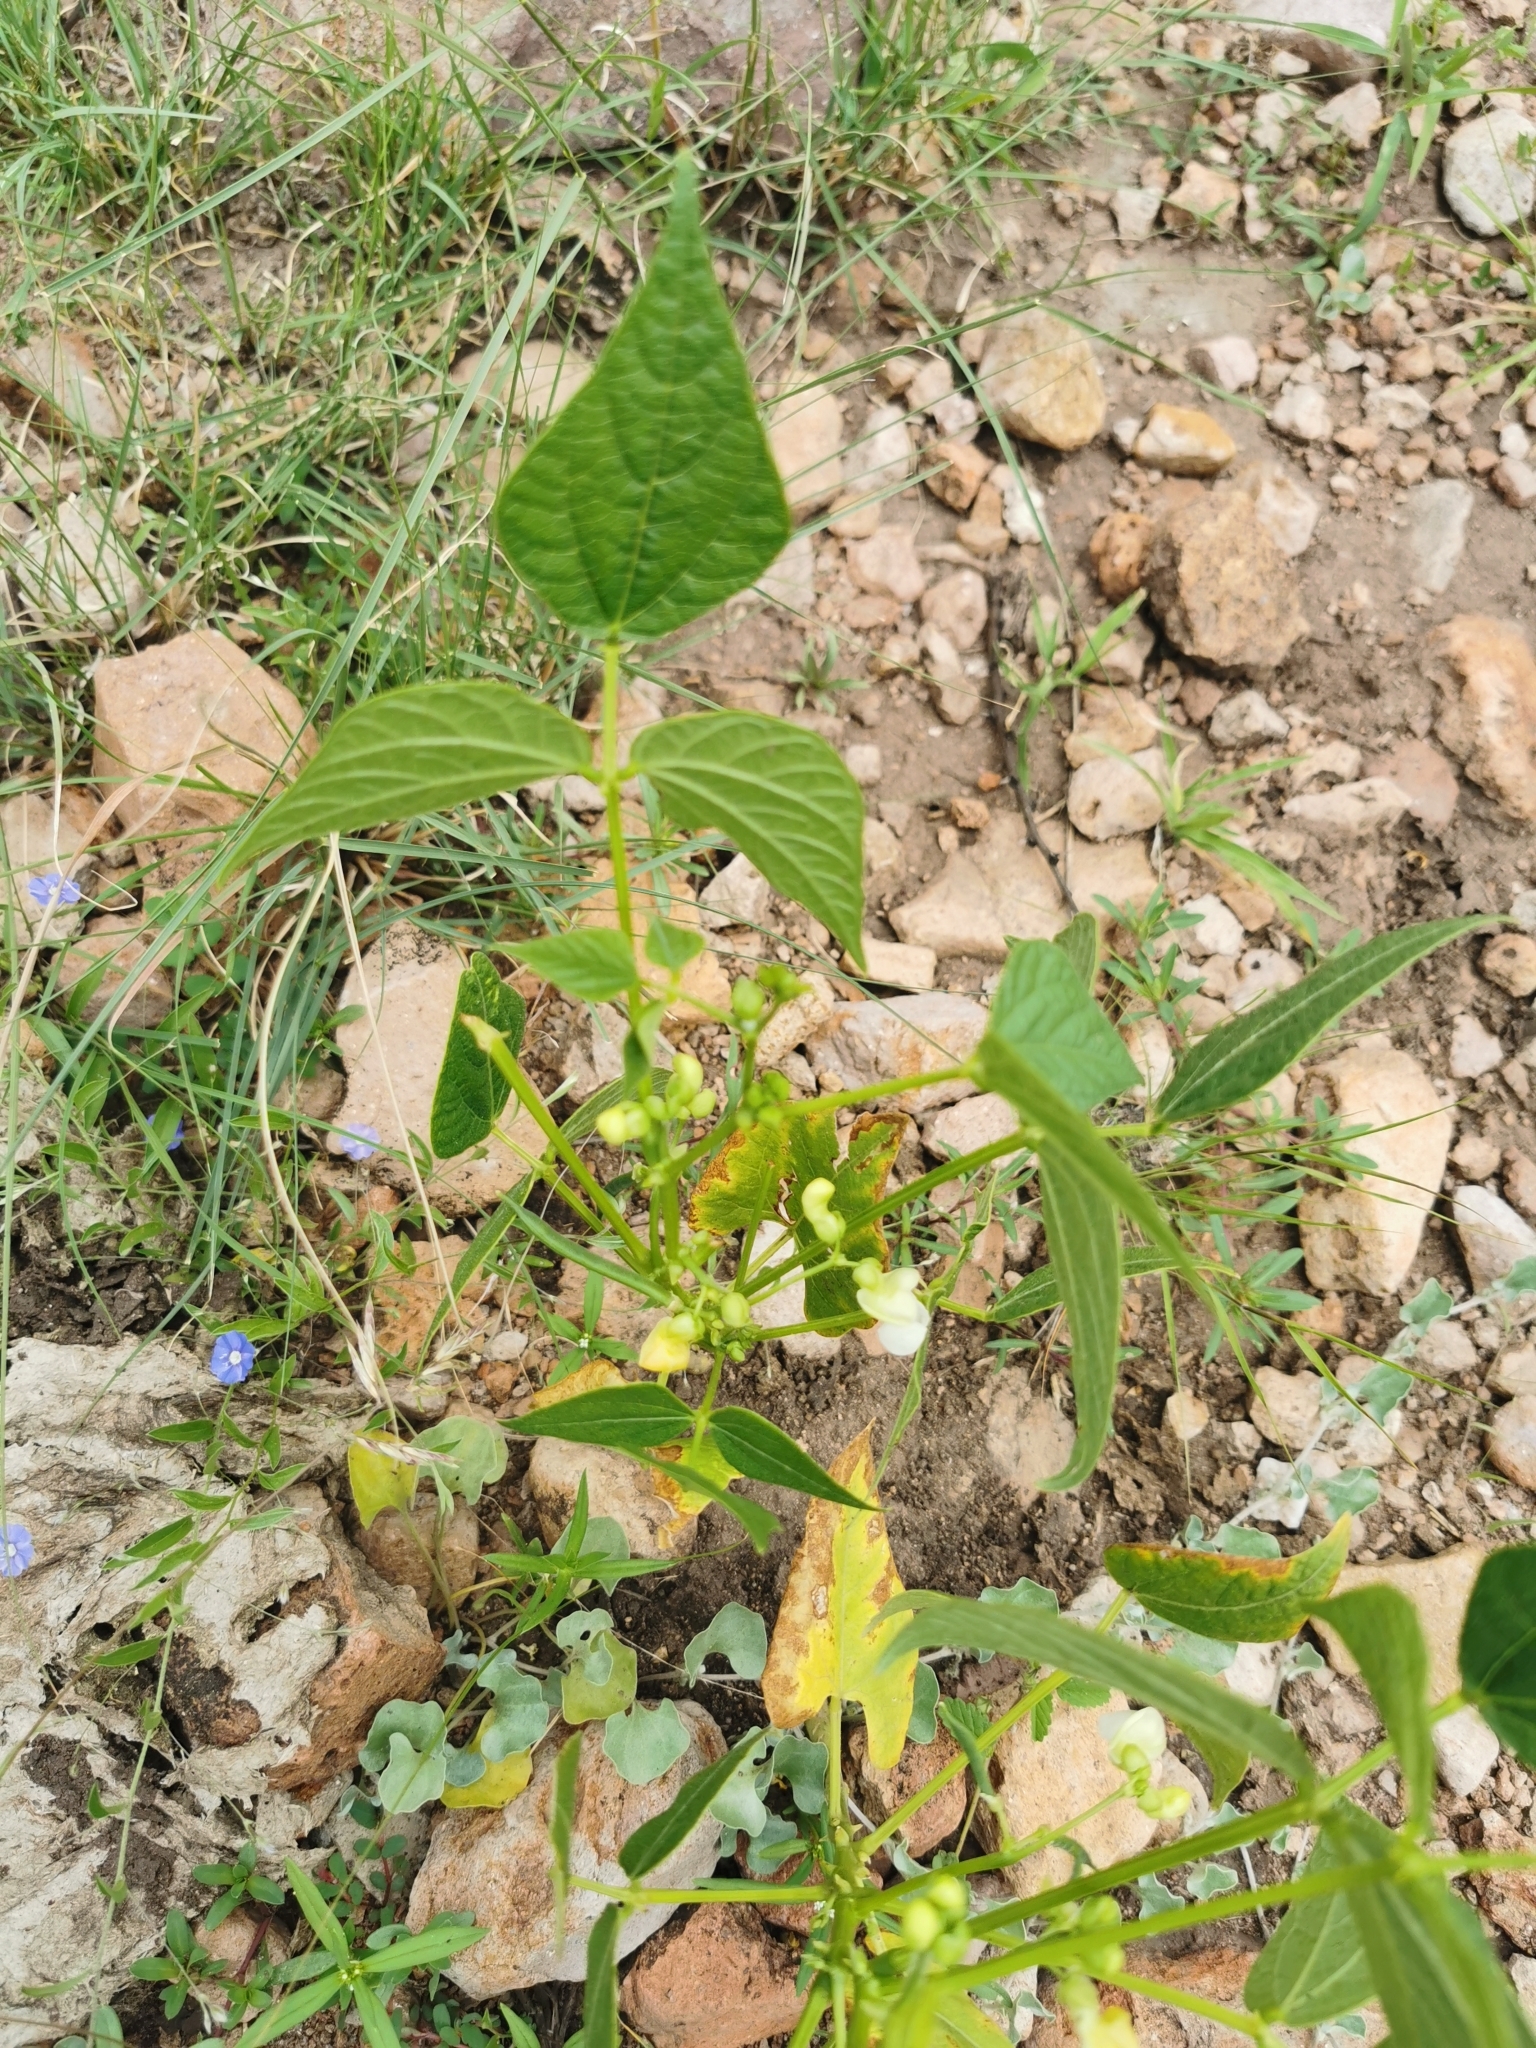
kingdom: Plantae
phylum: Tracheophyta
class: Magnoliopsida
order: Fabales
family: Fabaceae
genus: Phaseolus
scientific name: Phaseolus vulgaris
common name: Bean
